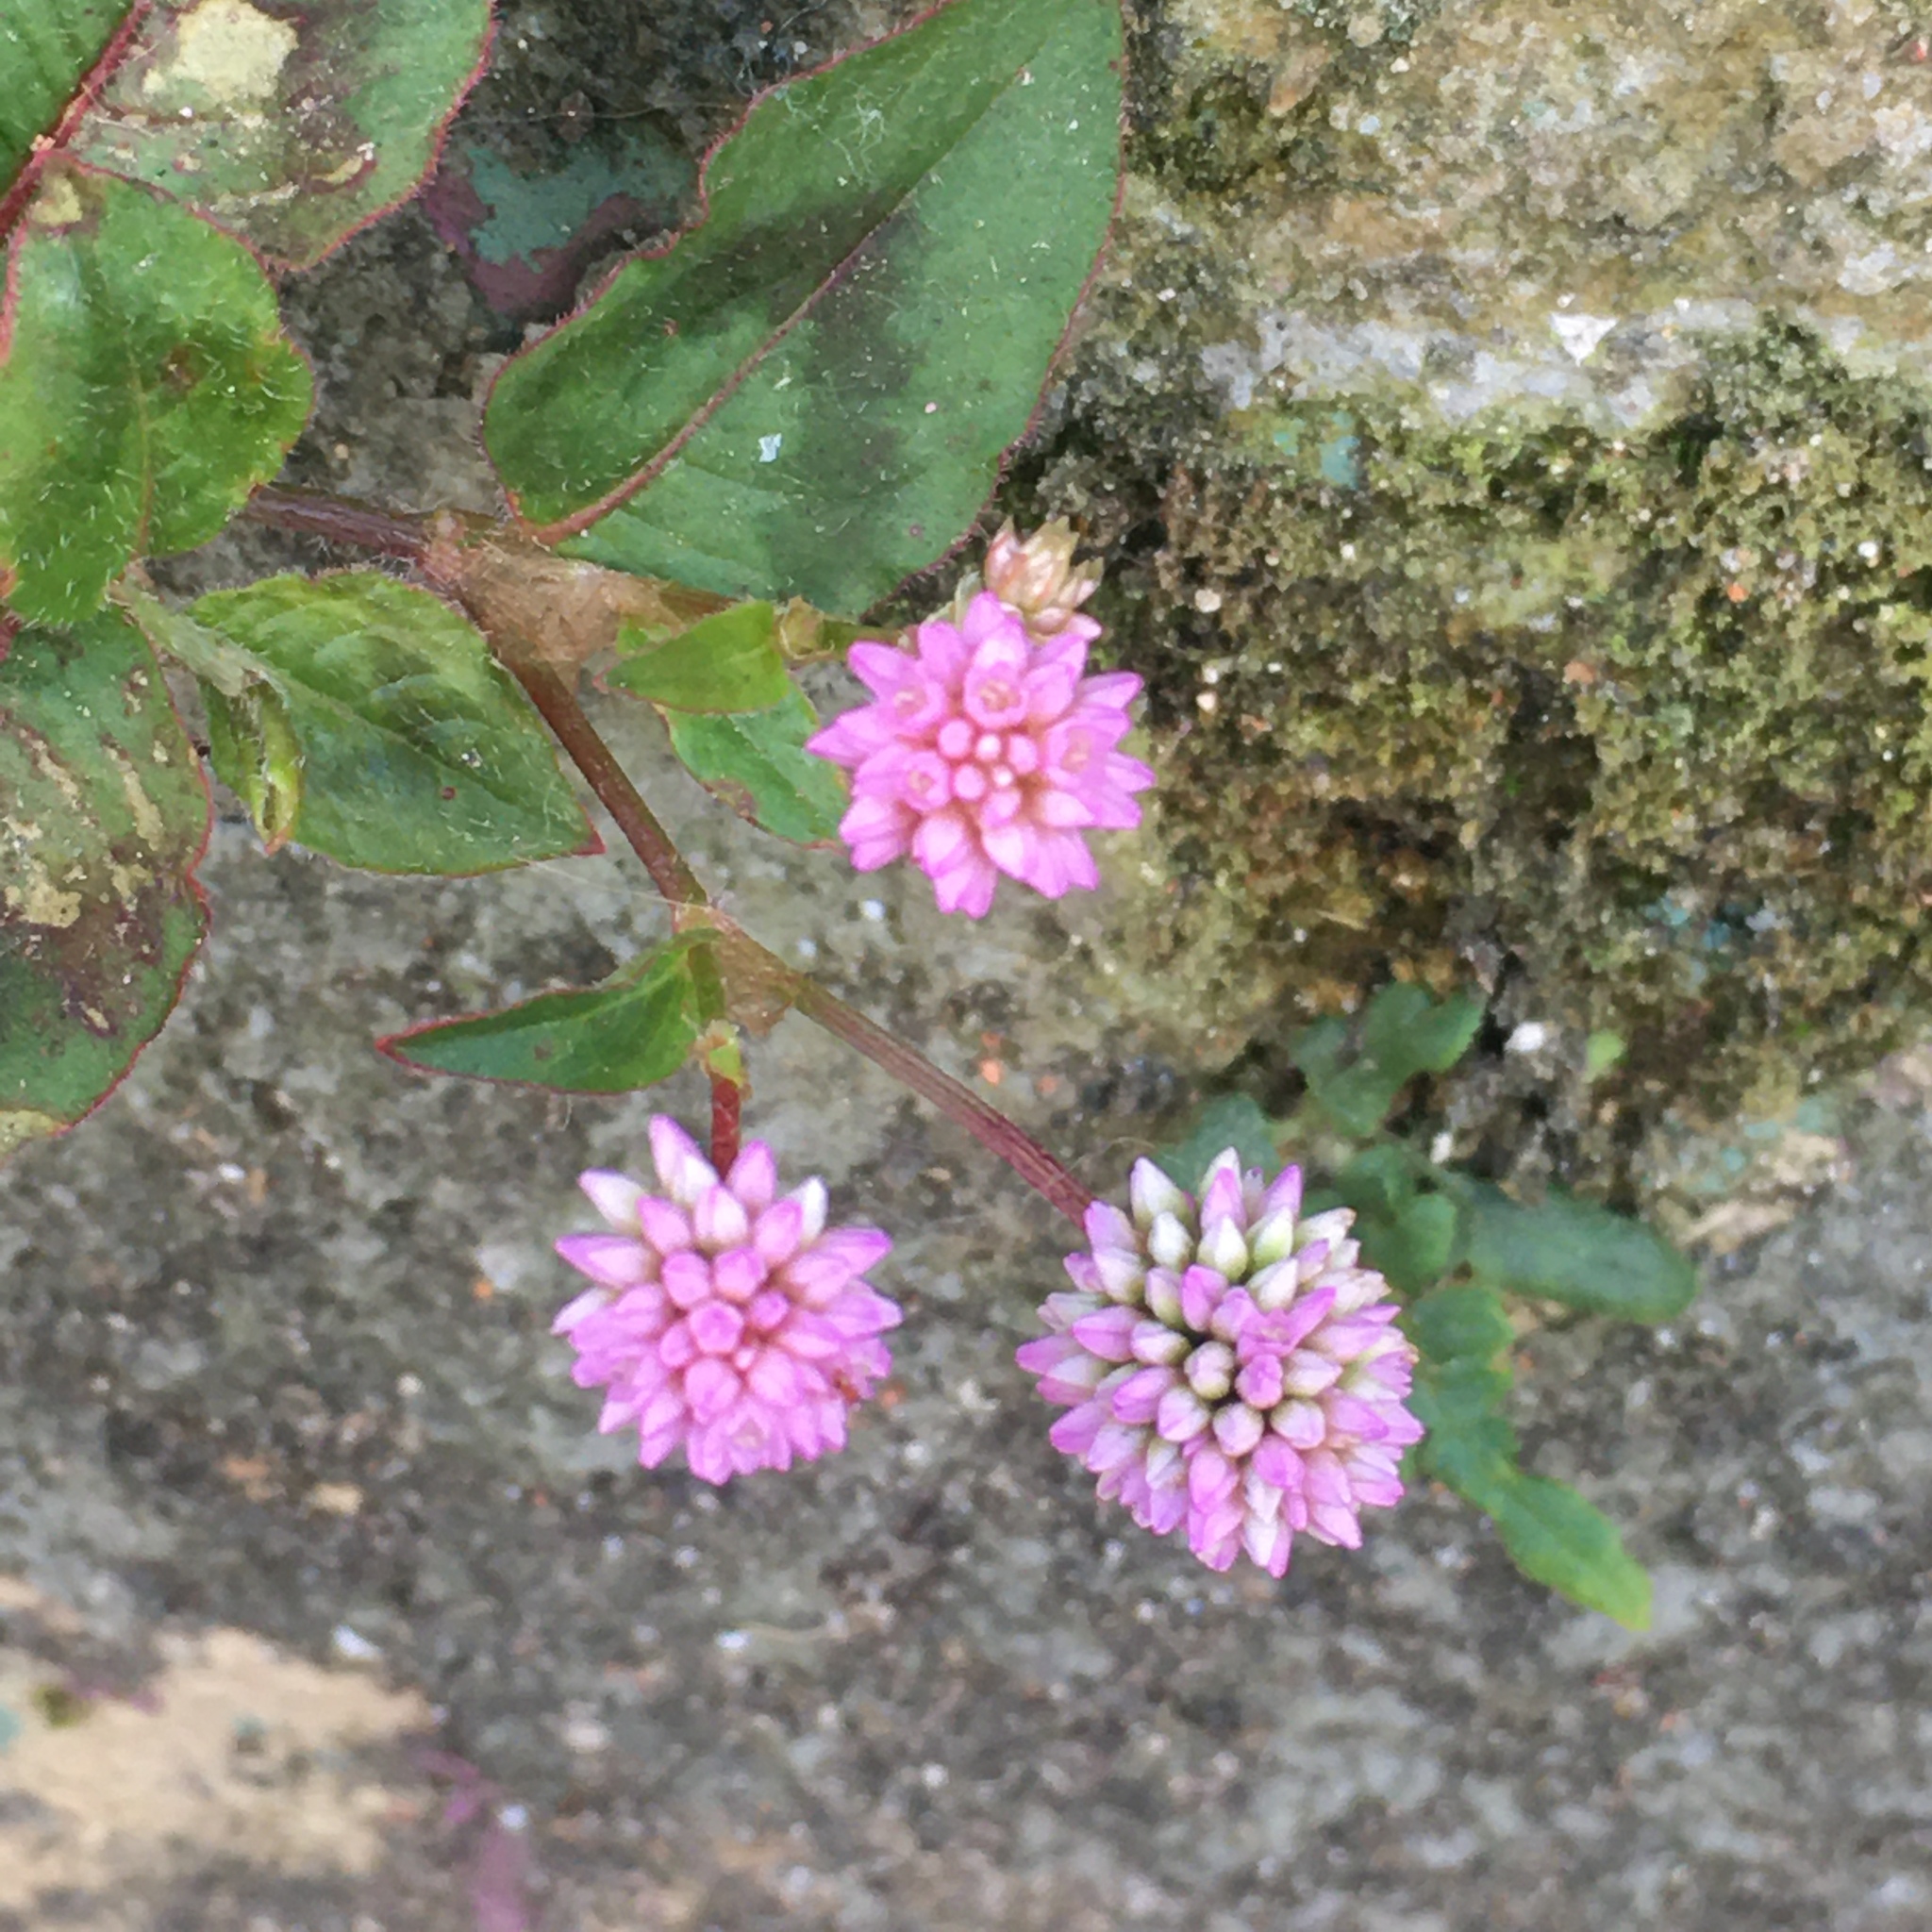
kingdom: Plantae
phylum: Tracheophyta
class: Magnoliopsida
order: Caryophyllales
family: Polygonaceae
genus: Persicaria
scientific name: Persicaria capitata
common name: Pinkhead smartweed
